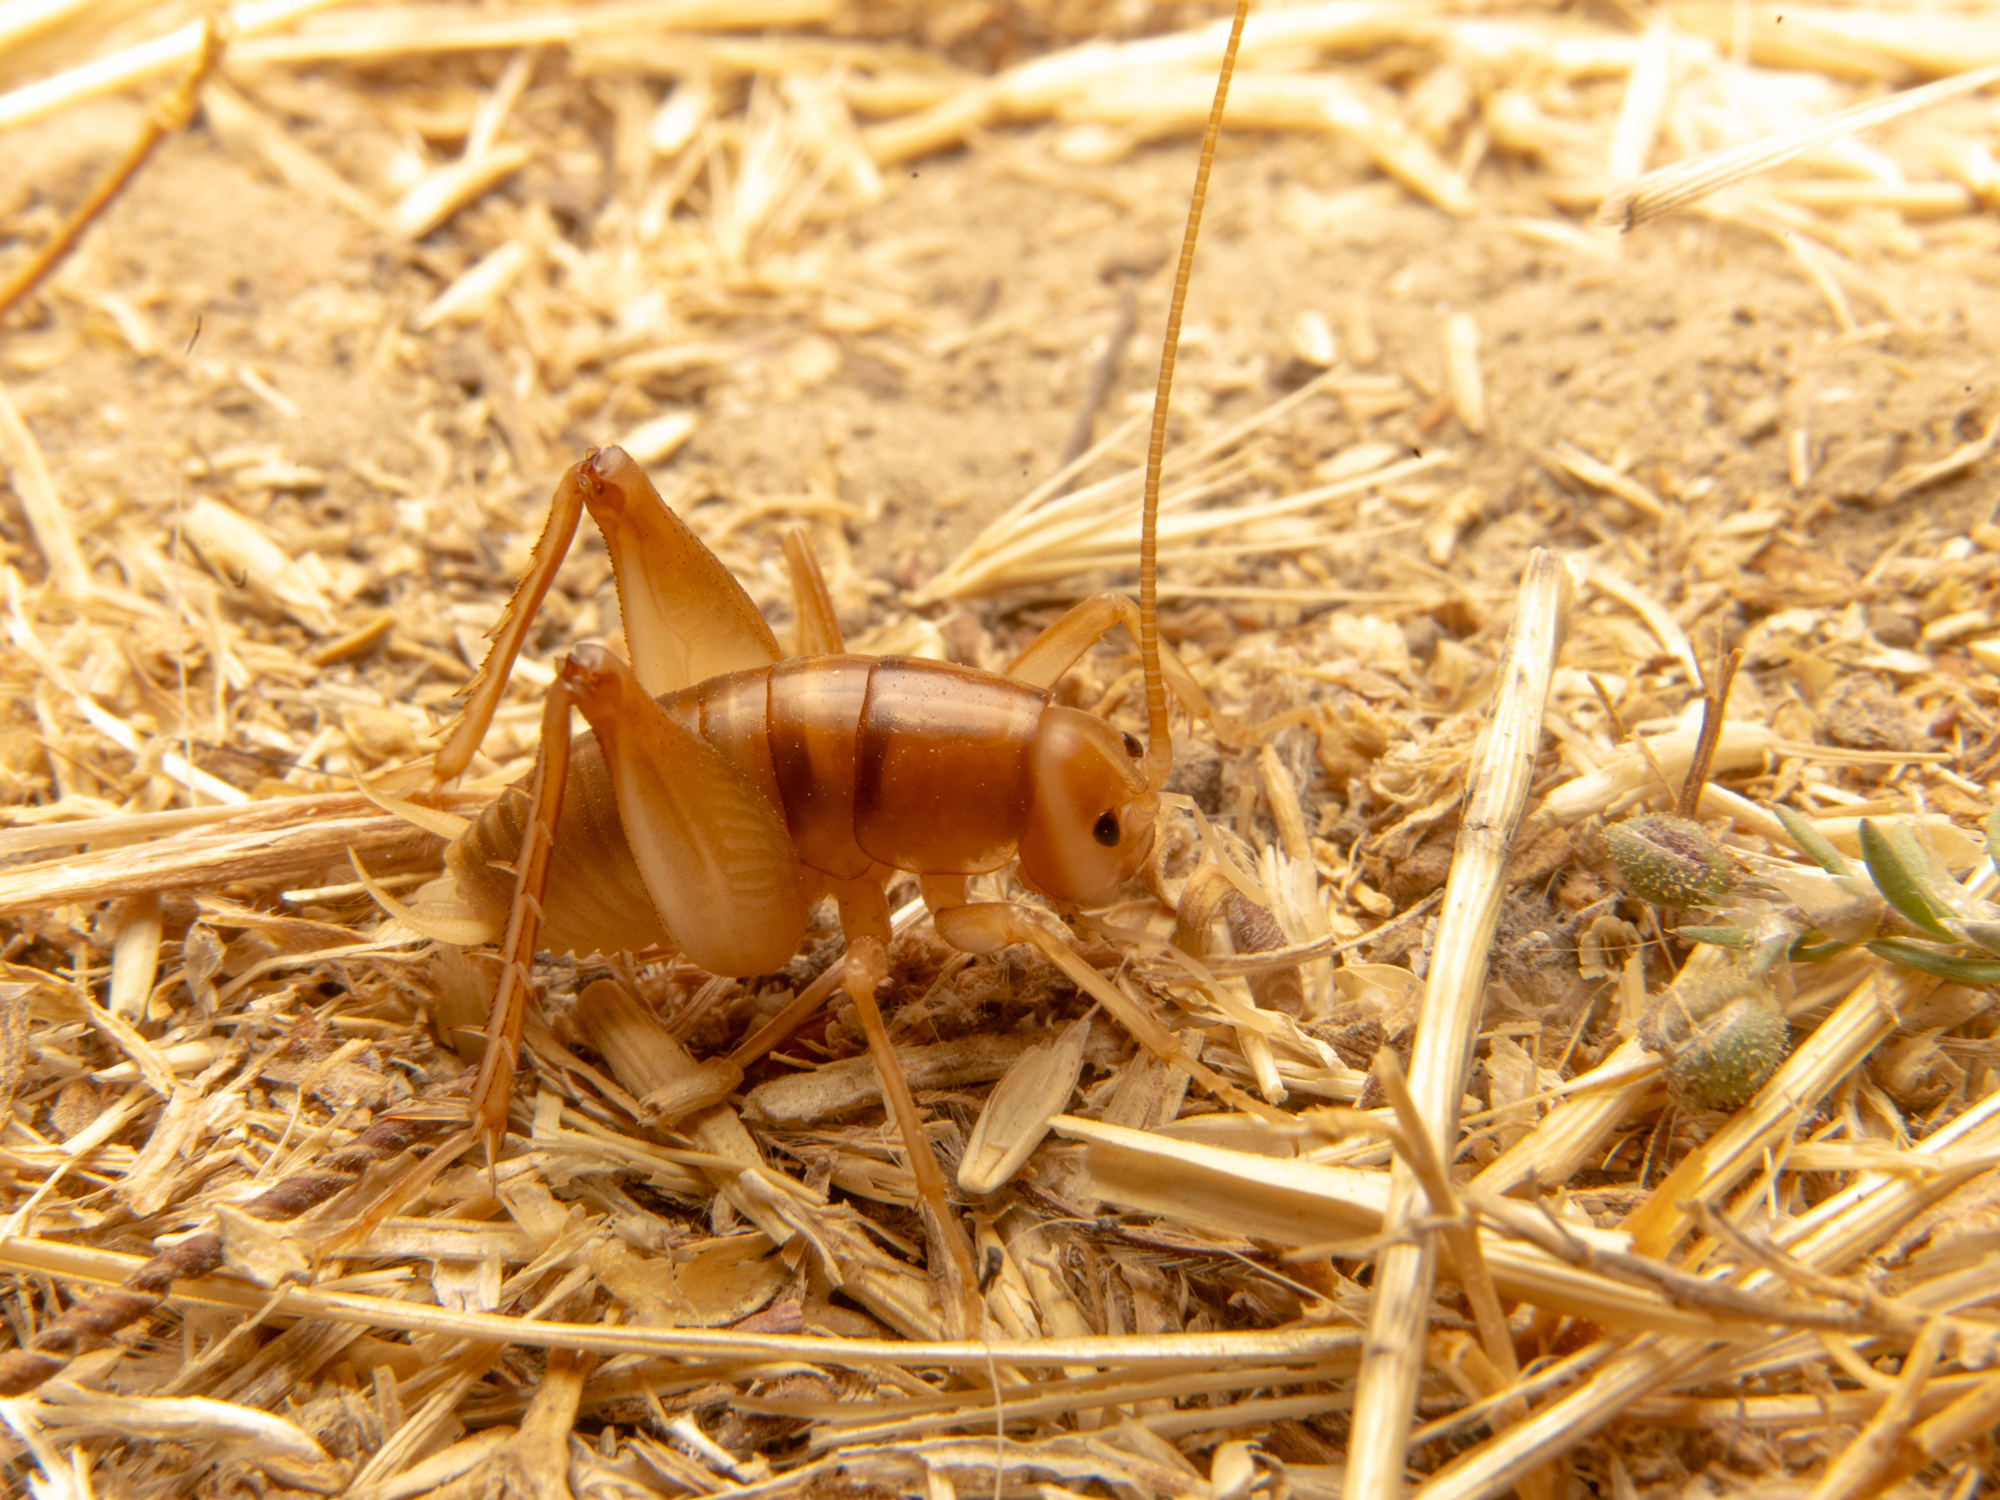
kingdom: Animalia
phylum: Arthropoda
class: Insecta
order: Orthoptera
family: Rhaphidophoridae
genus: Ceuthophilus
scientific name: Ceuthophilus californianus
